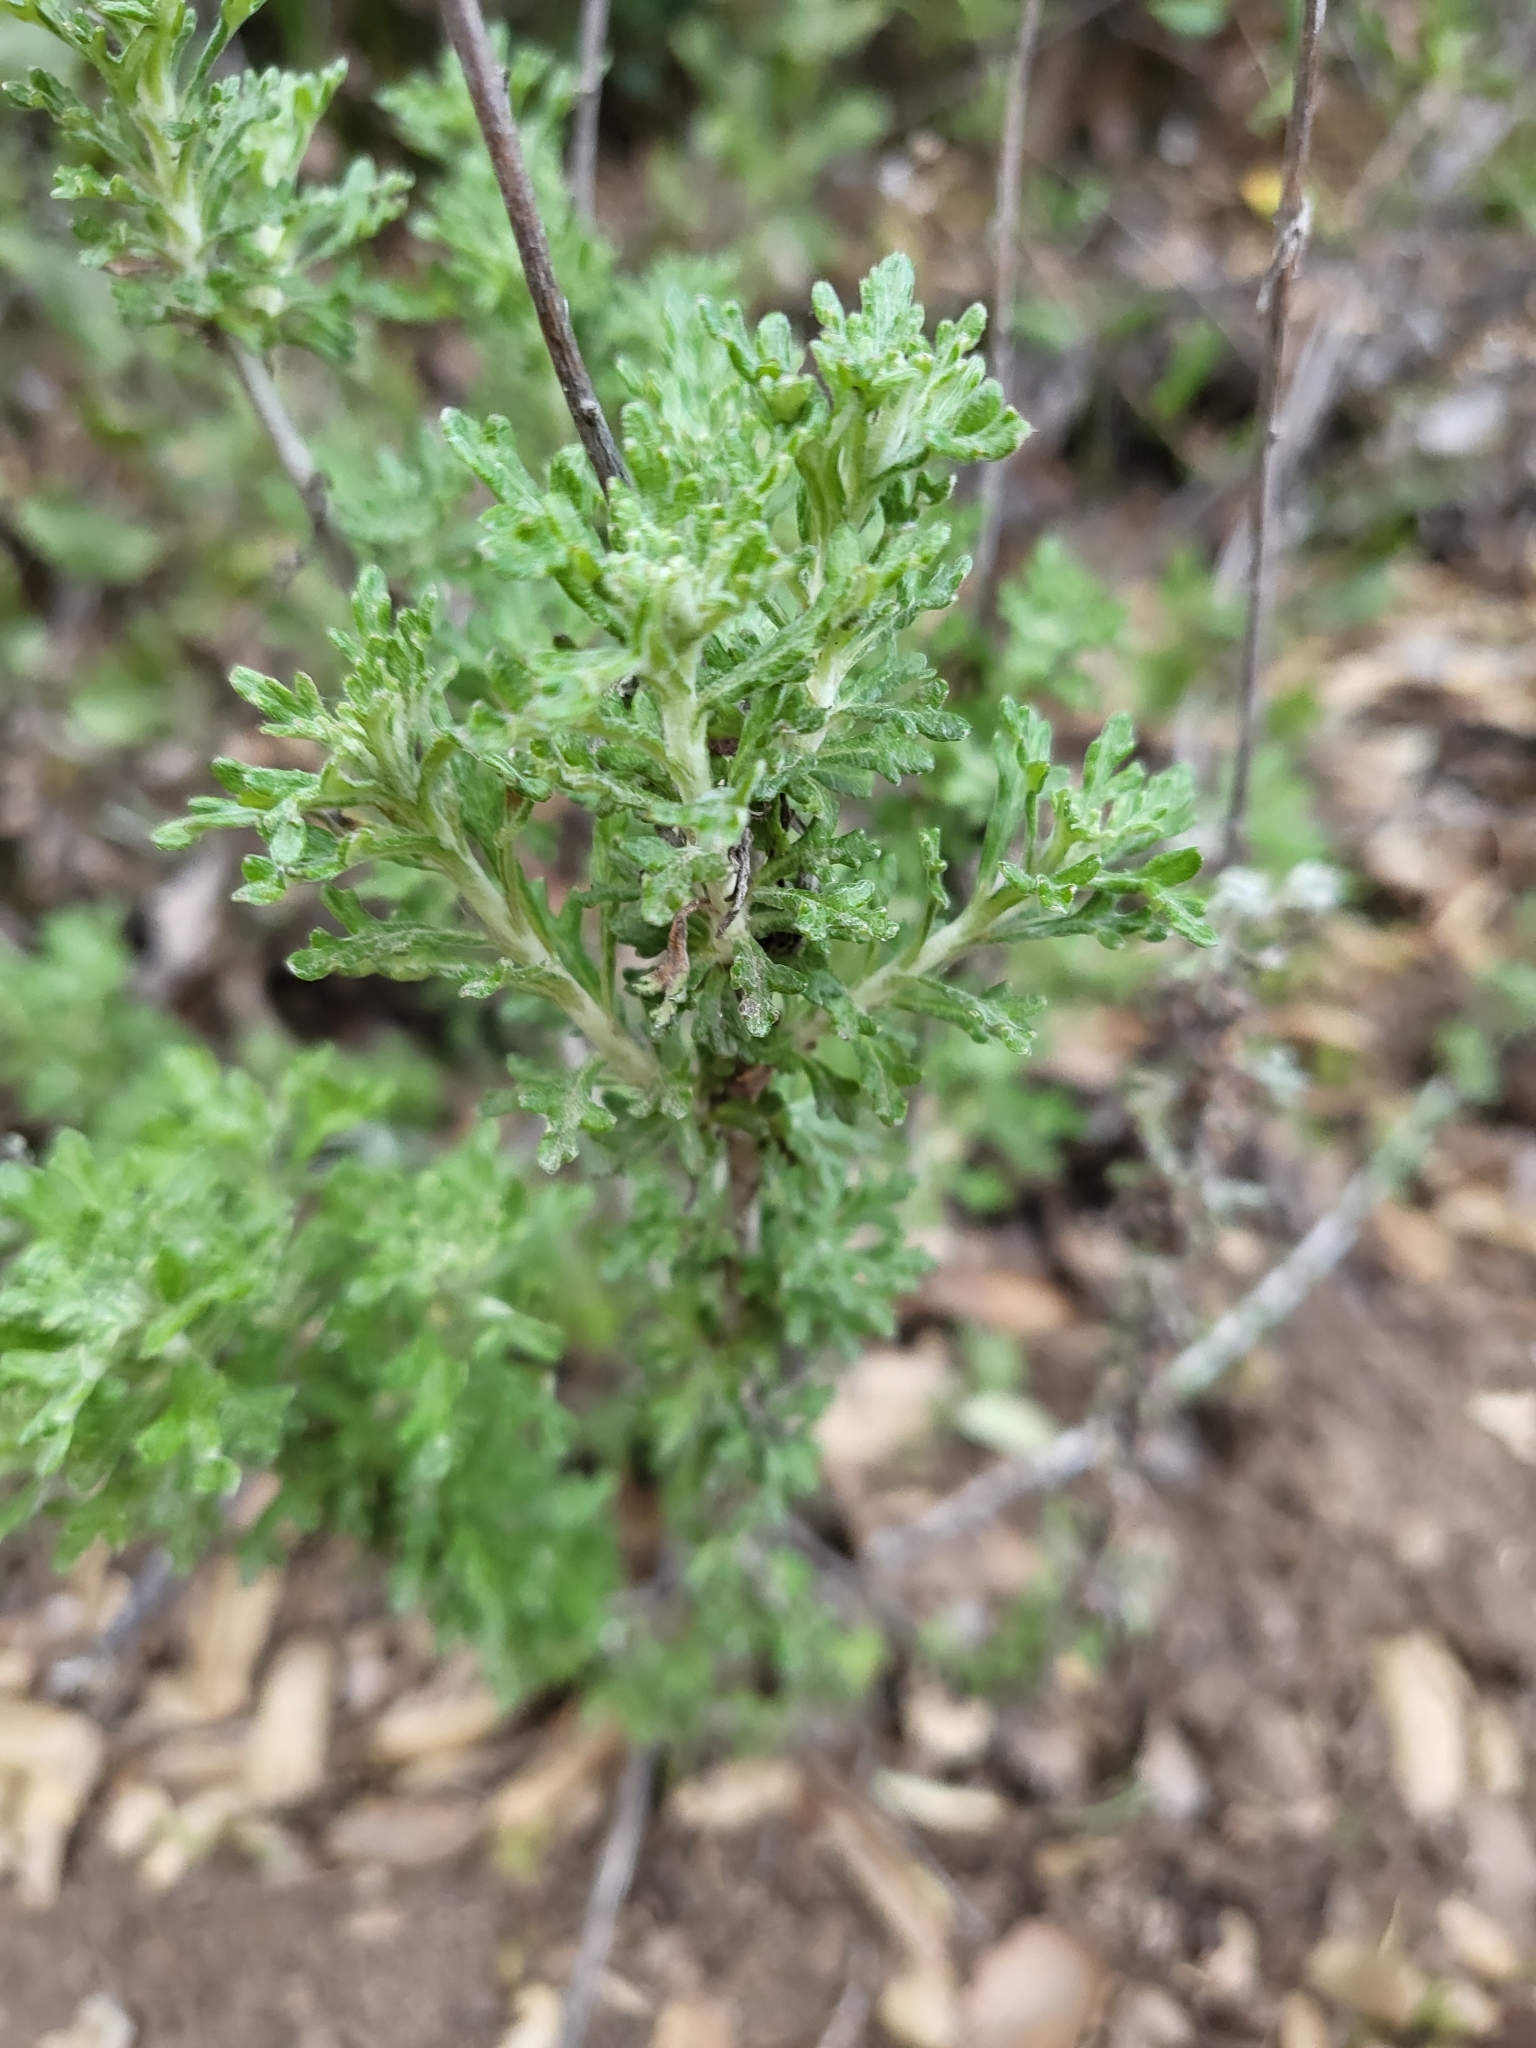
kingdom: Plantae
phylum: Tracheophyta
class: Magnoliopsida
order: Asterales
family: Asteraceae
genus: Eriophyllum
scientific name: Eriophyllum confertiflorum
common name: Golden-yarrow
